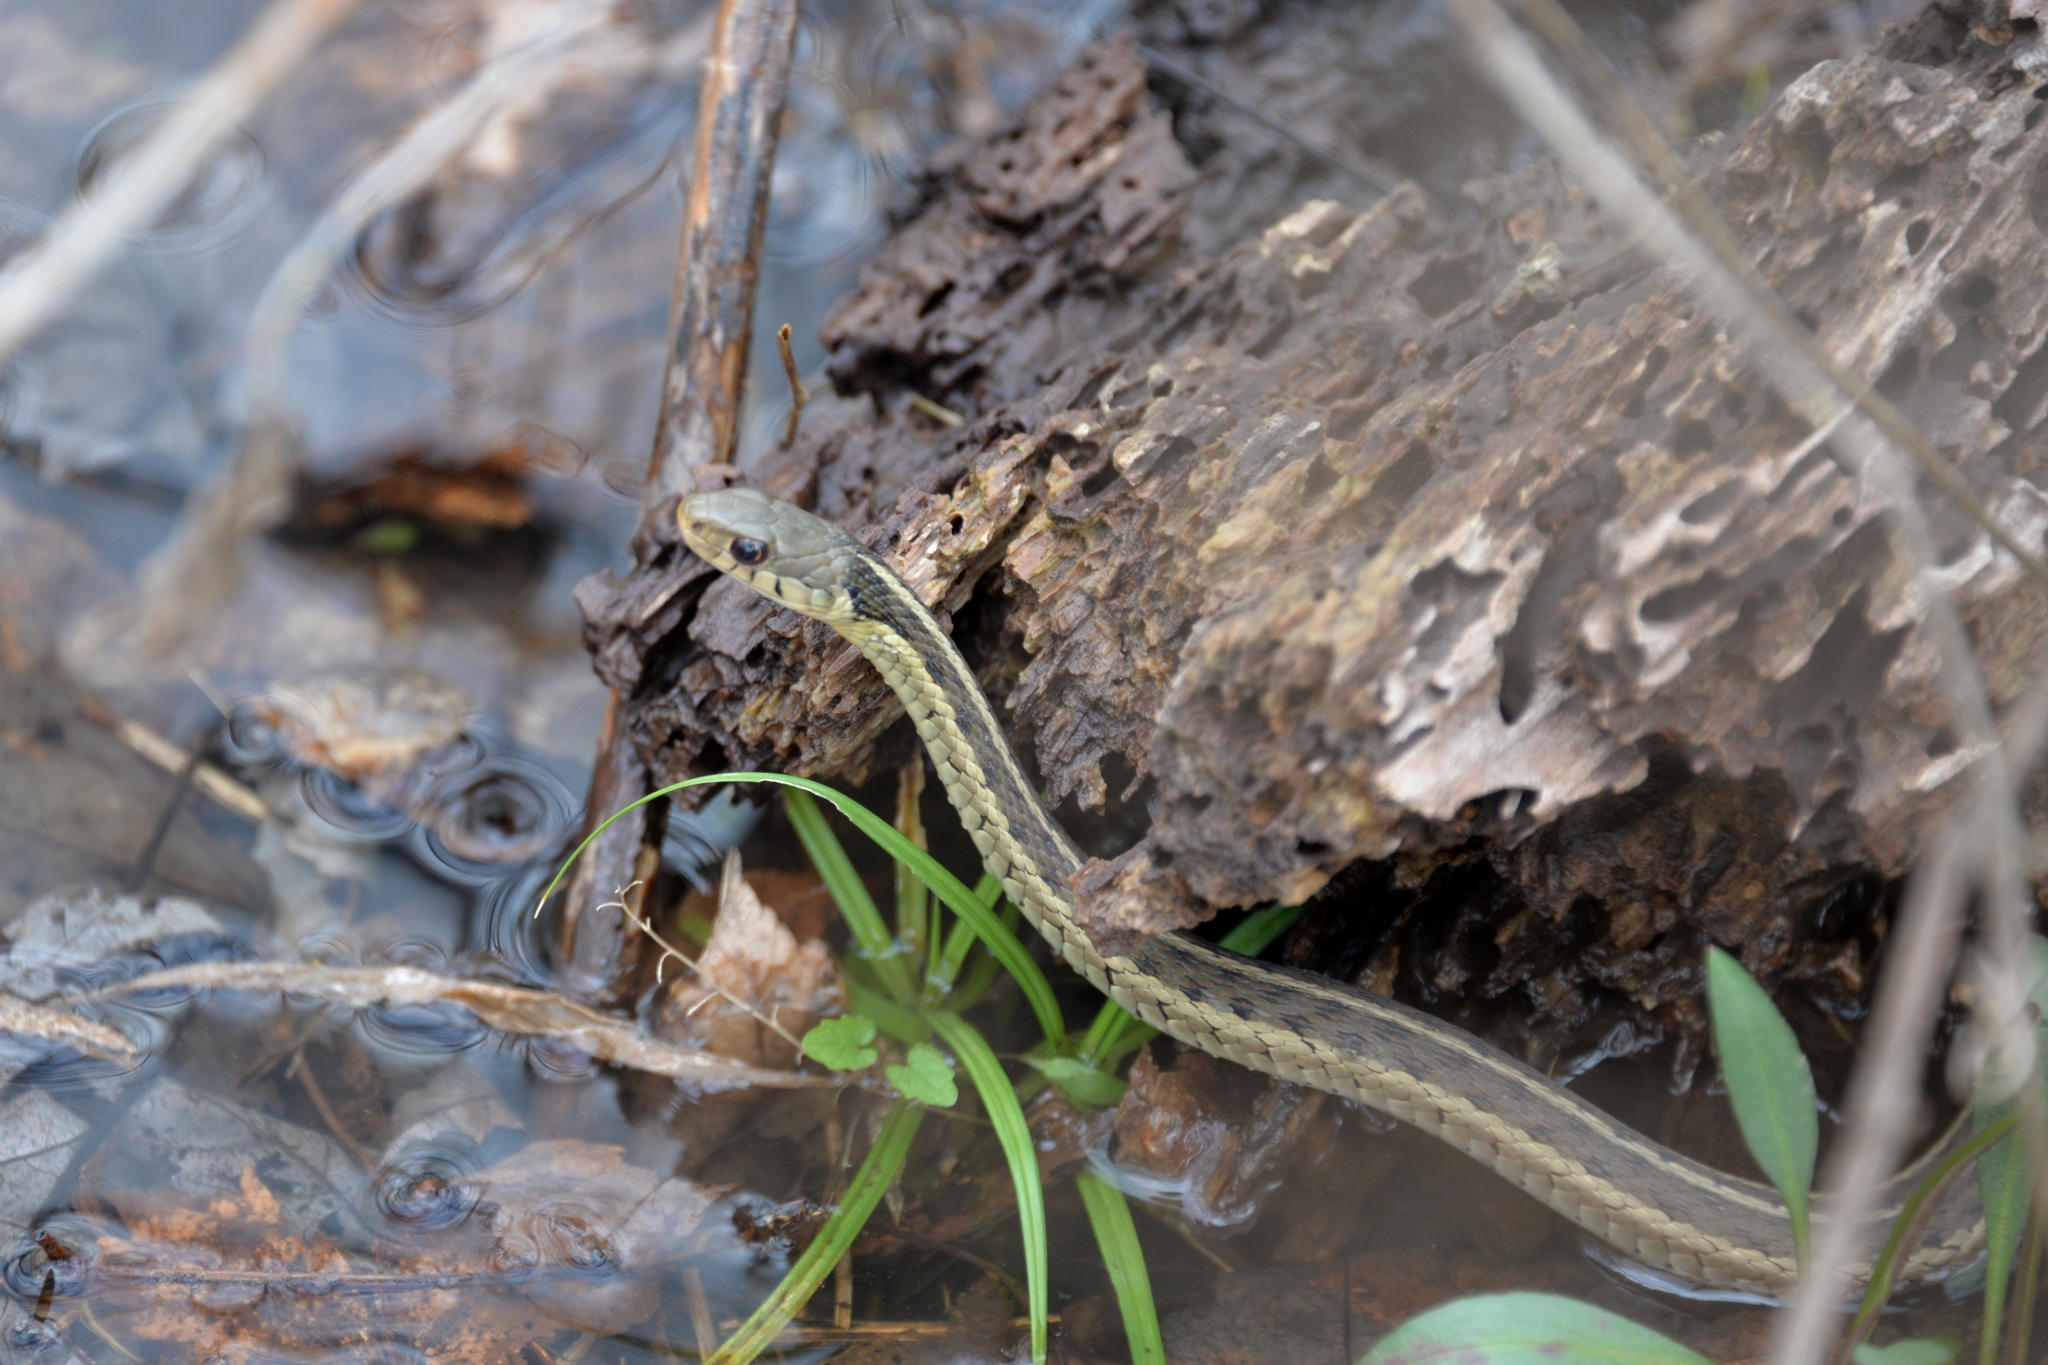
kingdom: Animalia
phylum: Chordata
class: Squamata
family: Colubridae
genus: Thamnophis
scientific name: Thamnophis sirtalis
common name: Common garter snake
